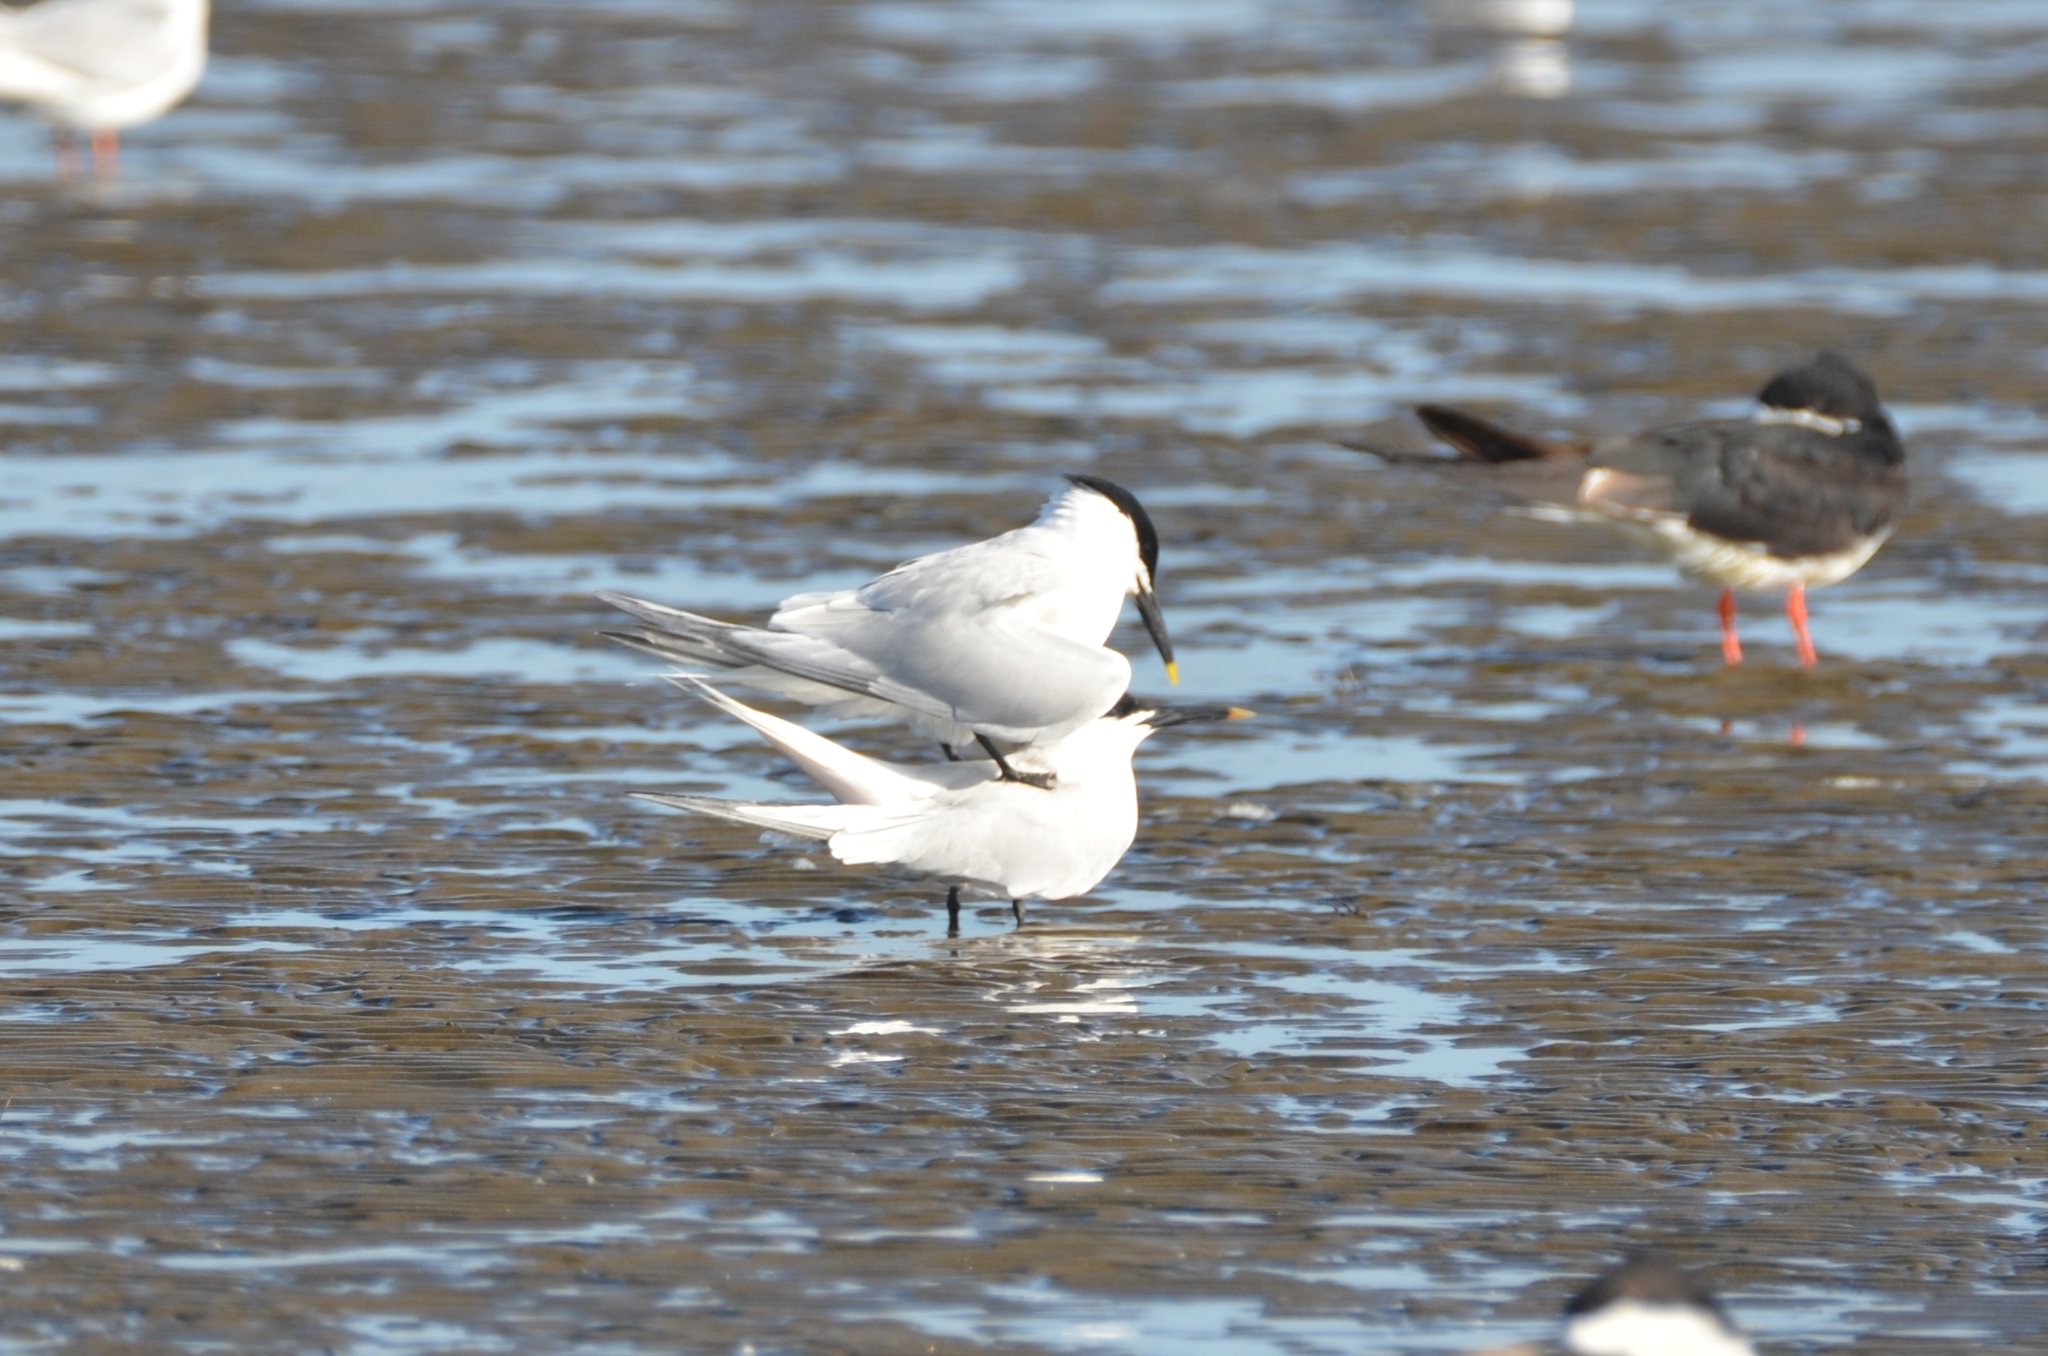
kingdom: Animalia
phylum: Chordata
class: Aves
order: Charadriiformes
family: Laridae
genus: Thalasseus
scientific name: Thalasseus sandvicensis
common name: Sandwich tern
